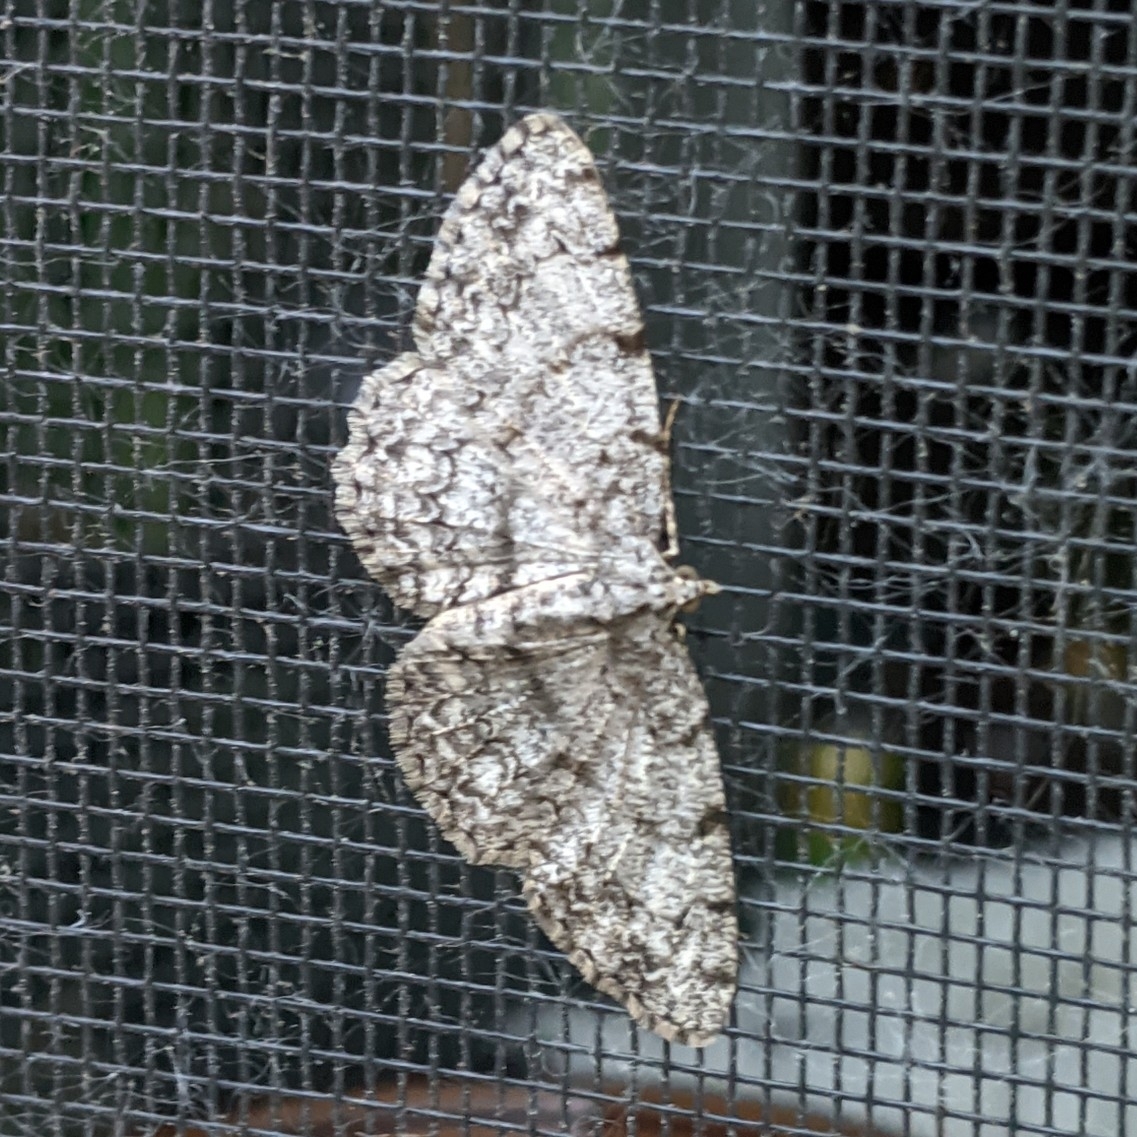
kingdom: Animalia
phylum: Arthropoda
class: Insecta
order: Lepidoptera
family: Geometridae
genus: Protoboarmia
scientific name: Protoboarmia porcelaria
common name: Porcelain gray
